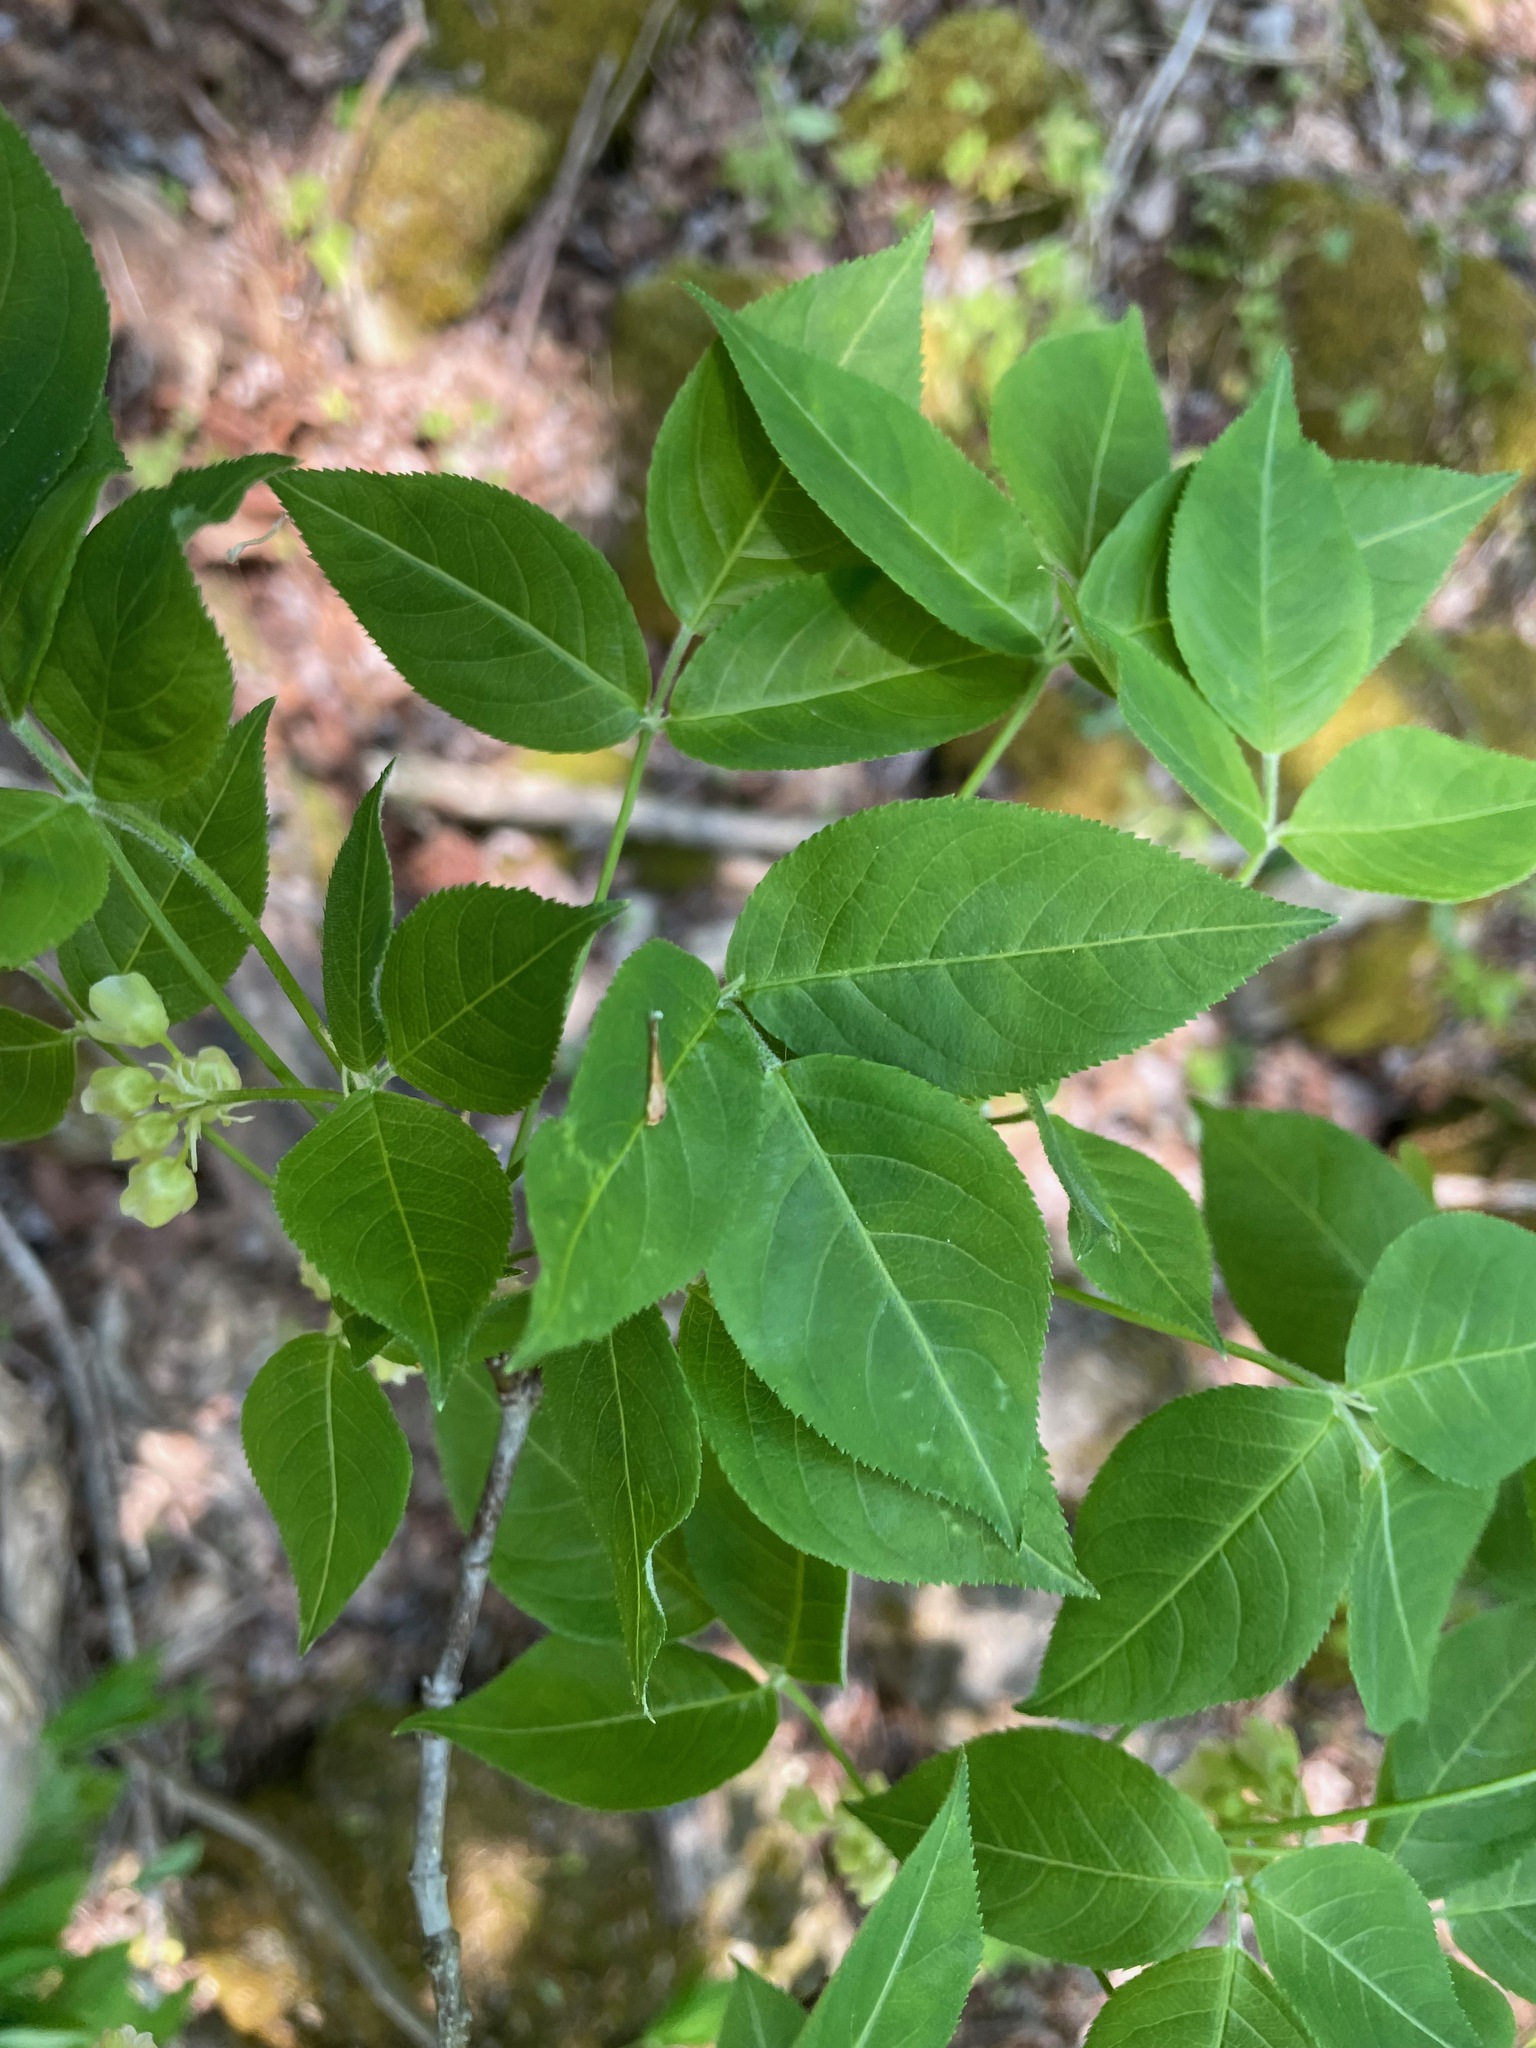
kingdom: Plantae
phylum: Tracheophyta
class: Magnoliopsida
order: Crossosomatales
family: Staphyleaceae
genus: Staphylea
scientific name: Staphylea trifolia
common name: American bladdernut
